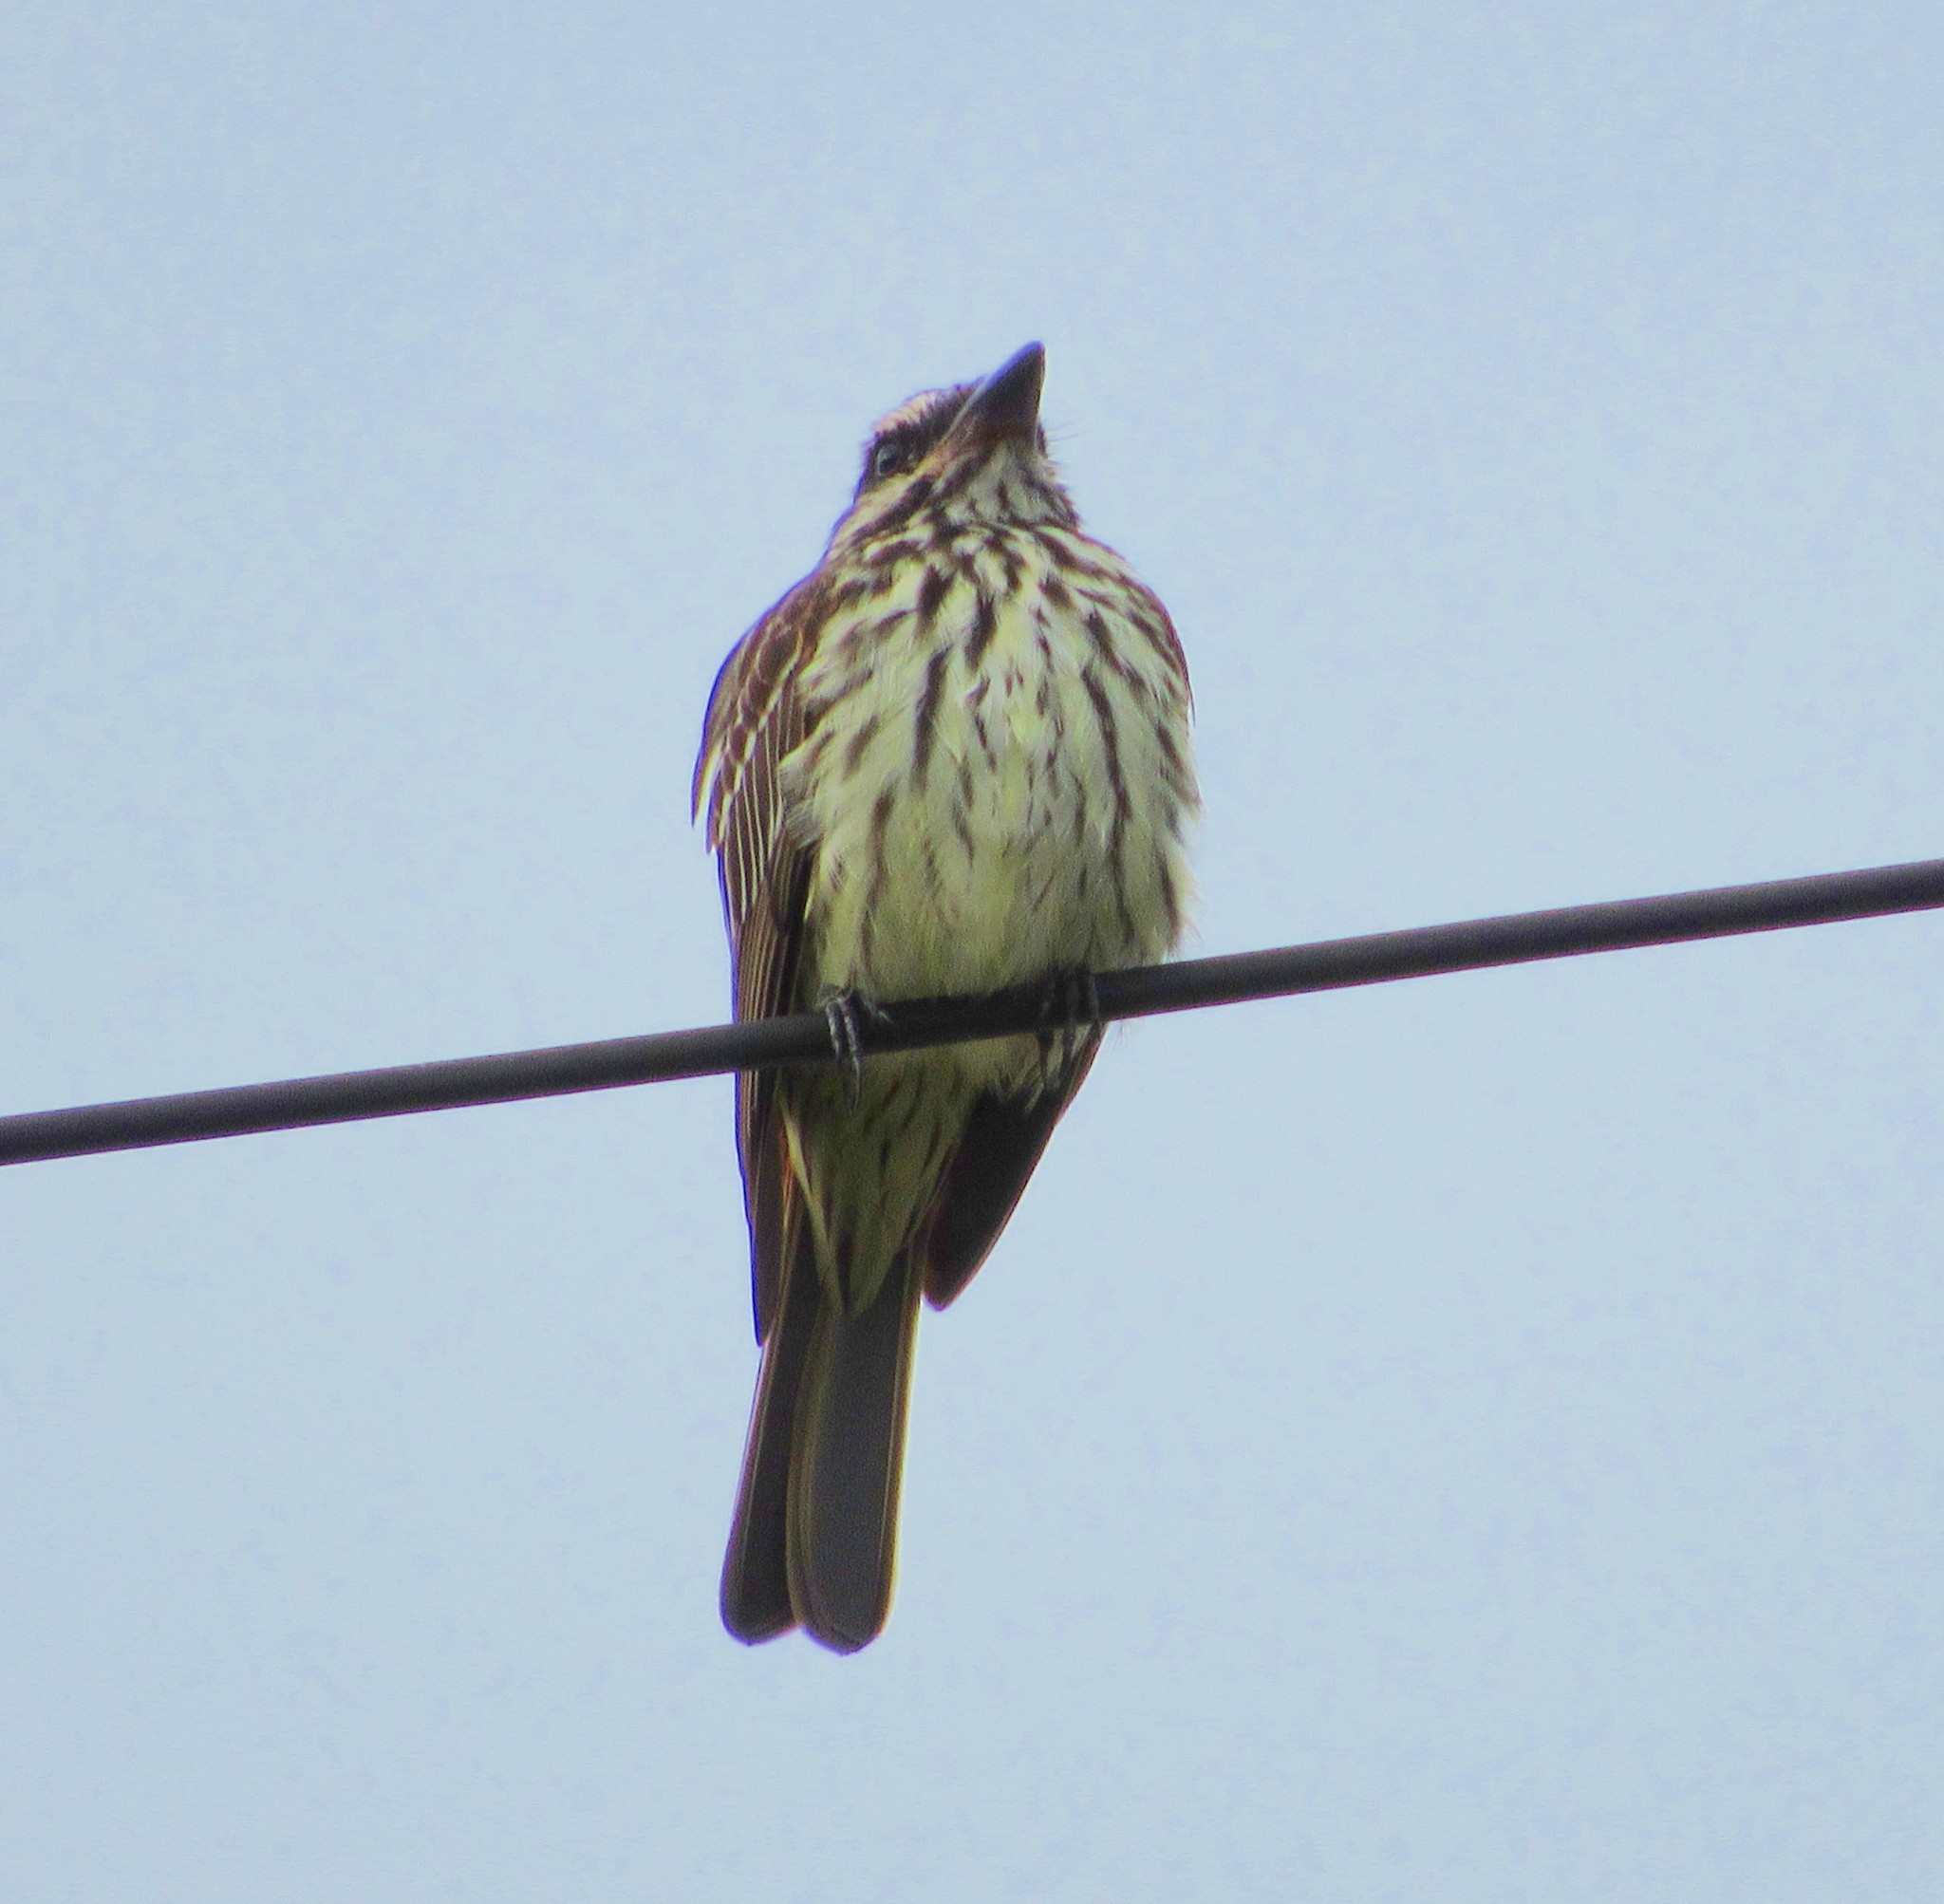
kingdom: Animalia
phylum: Chordata
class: Aves
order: Passeriformes
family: Tyrannidae
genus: Myiodynastes
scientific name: Myiodynastes maculatus
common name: Streaked flycatcher
